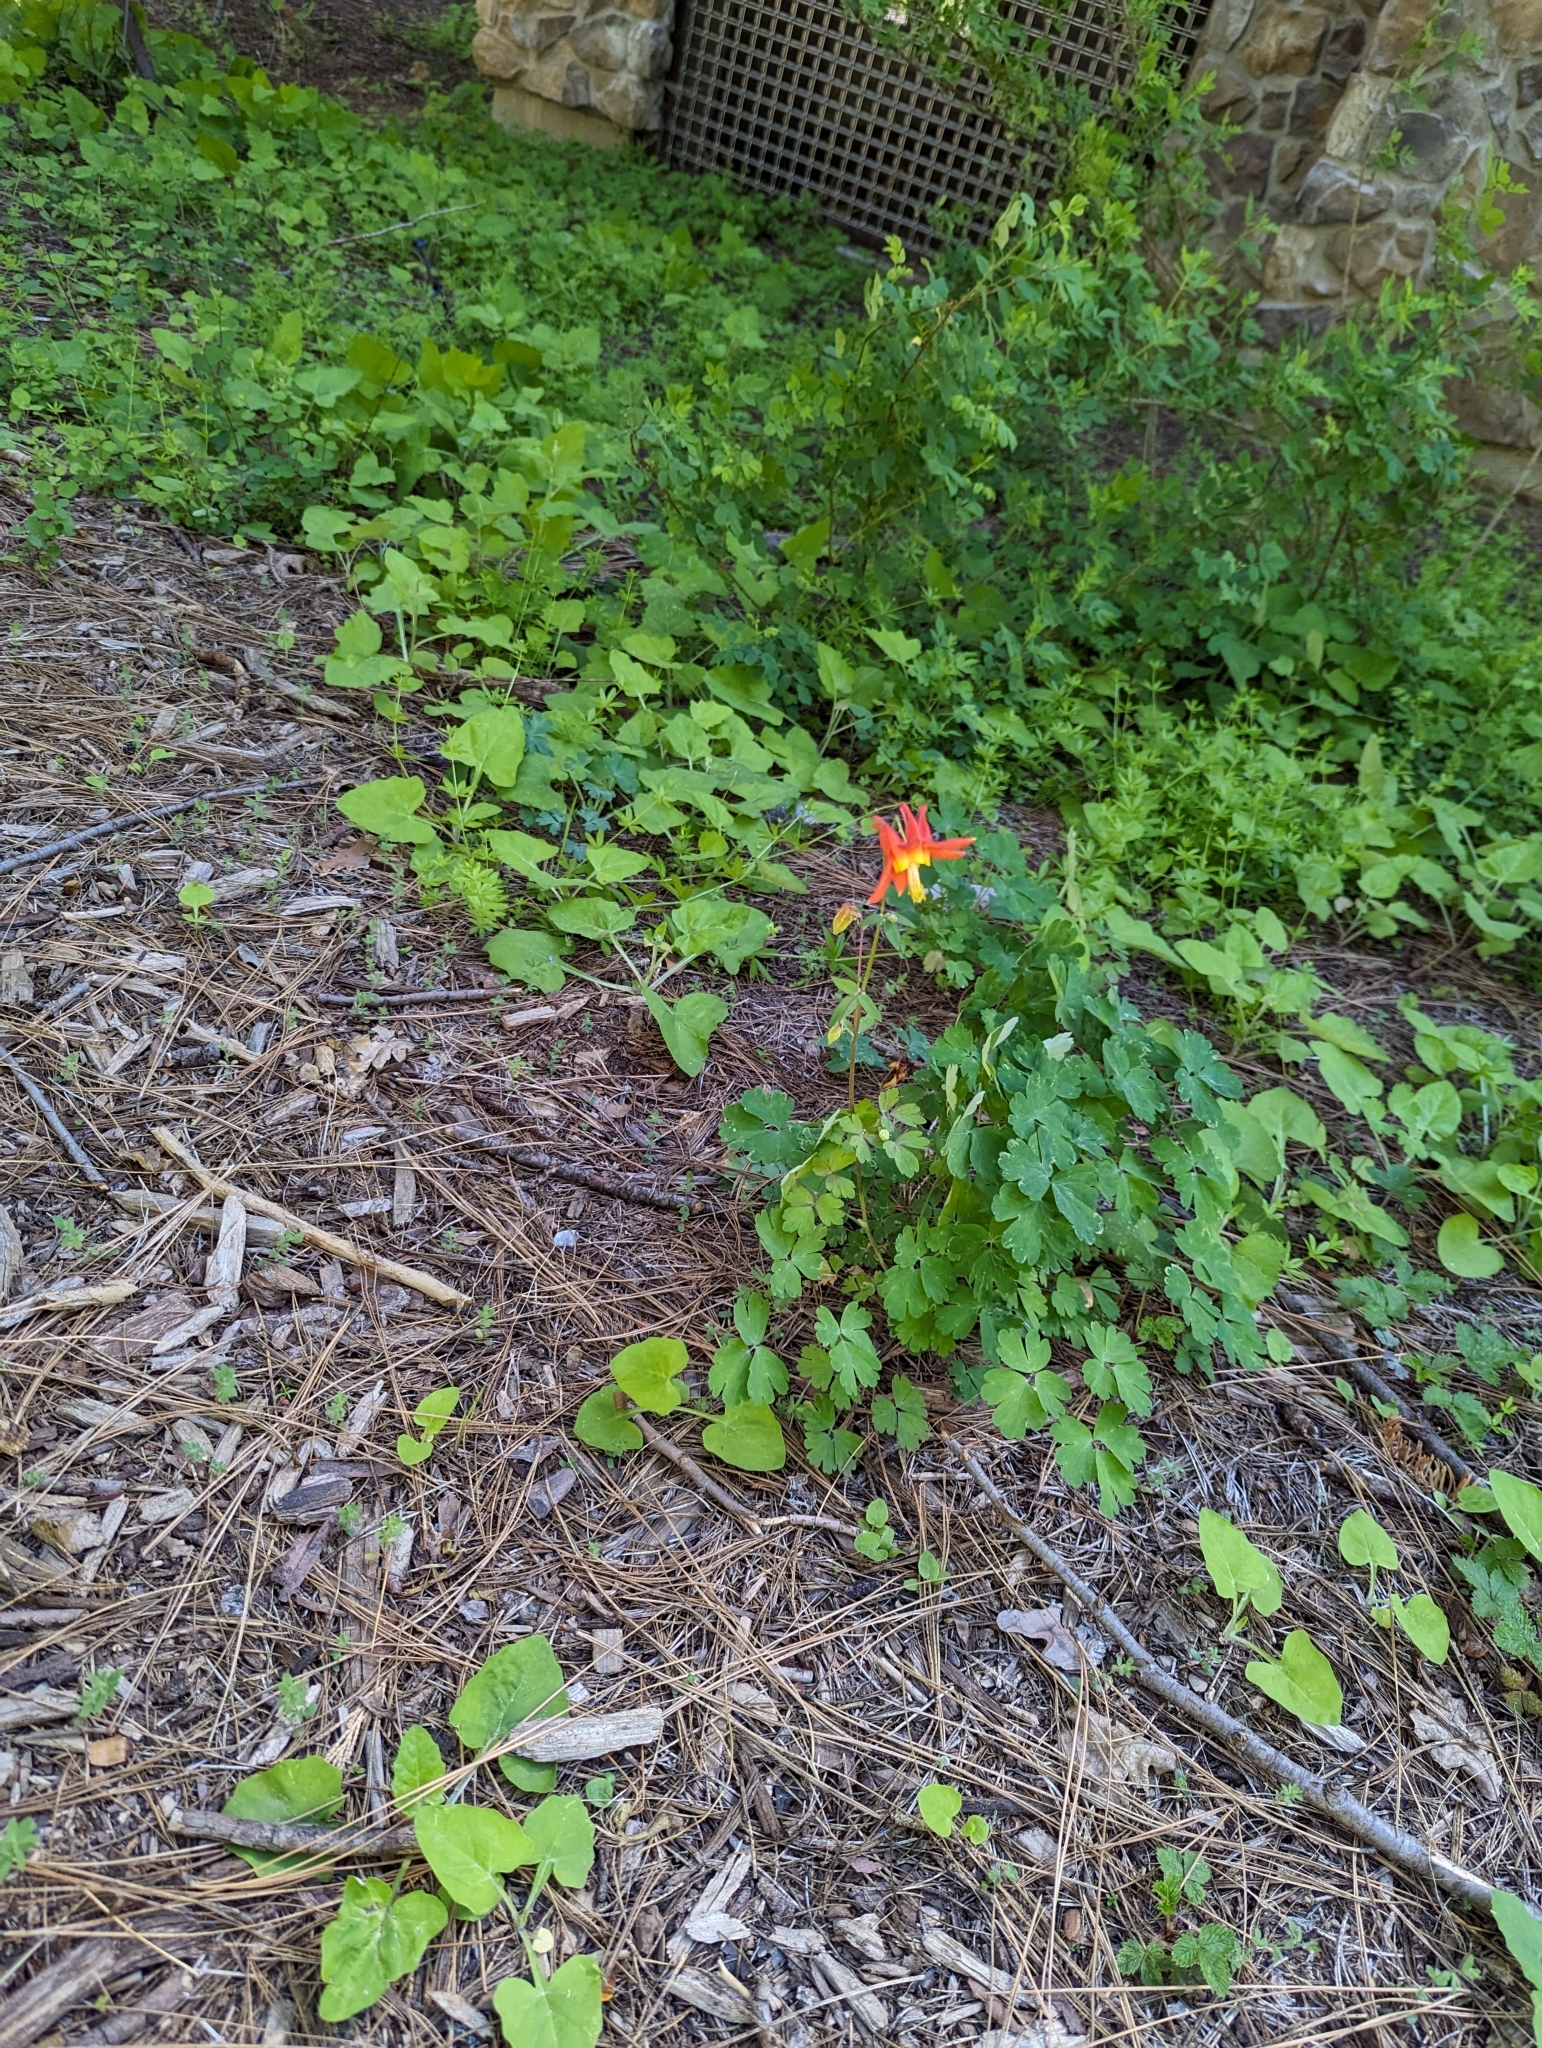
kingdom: Plantae
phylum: Tracheophyta
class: Magnoliopsida
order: Ranunculales
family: Ranunculaceae
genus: Aquilegia
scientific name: Aquilegia formosa
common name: Sitka columbine
